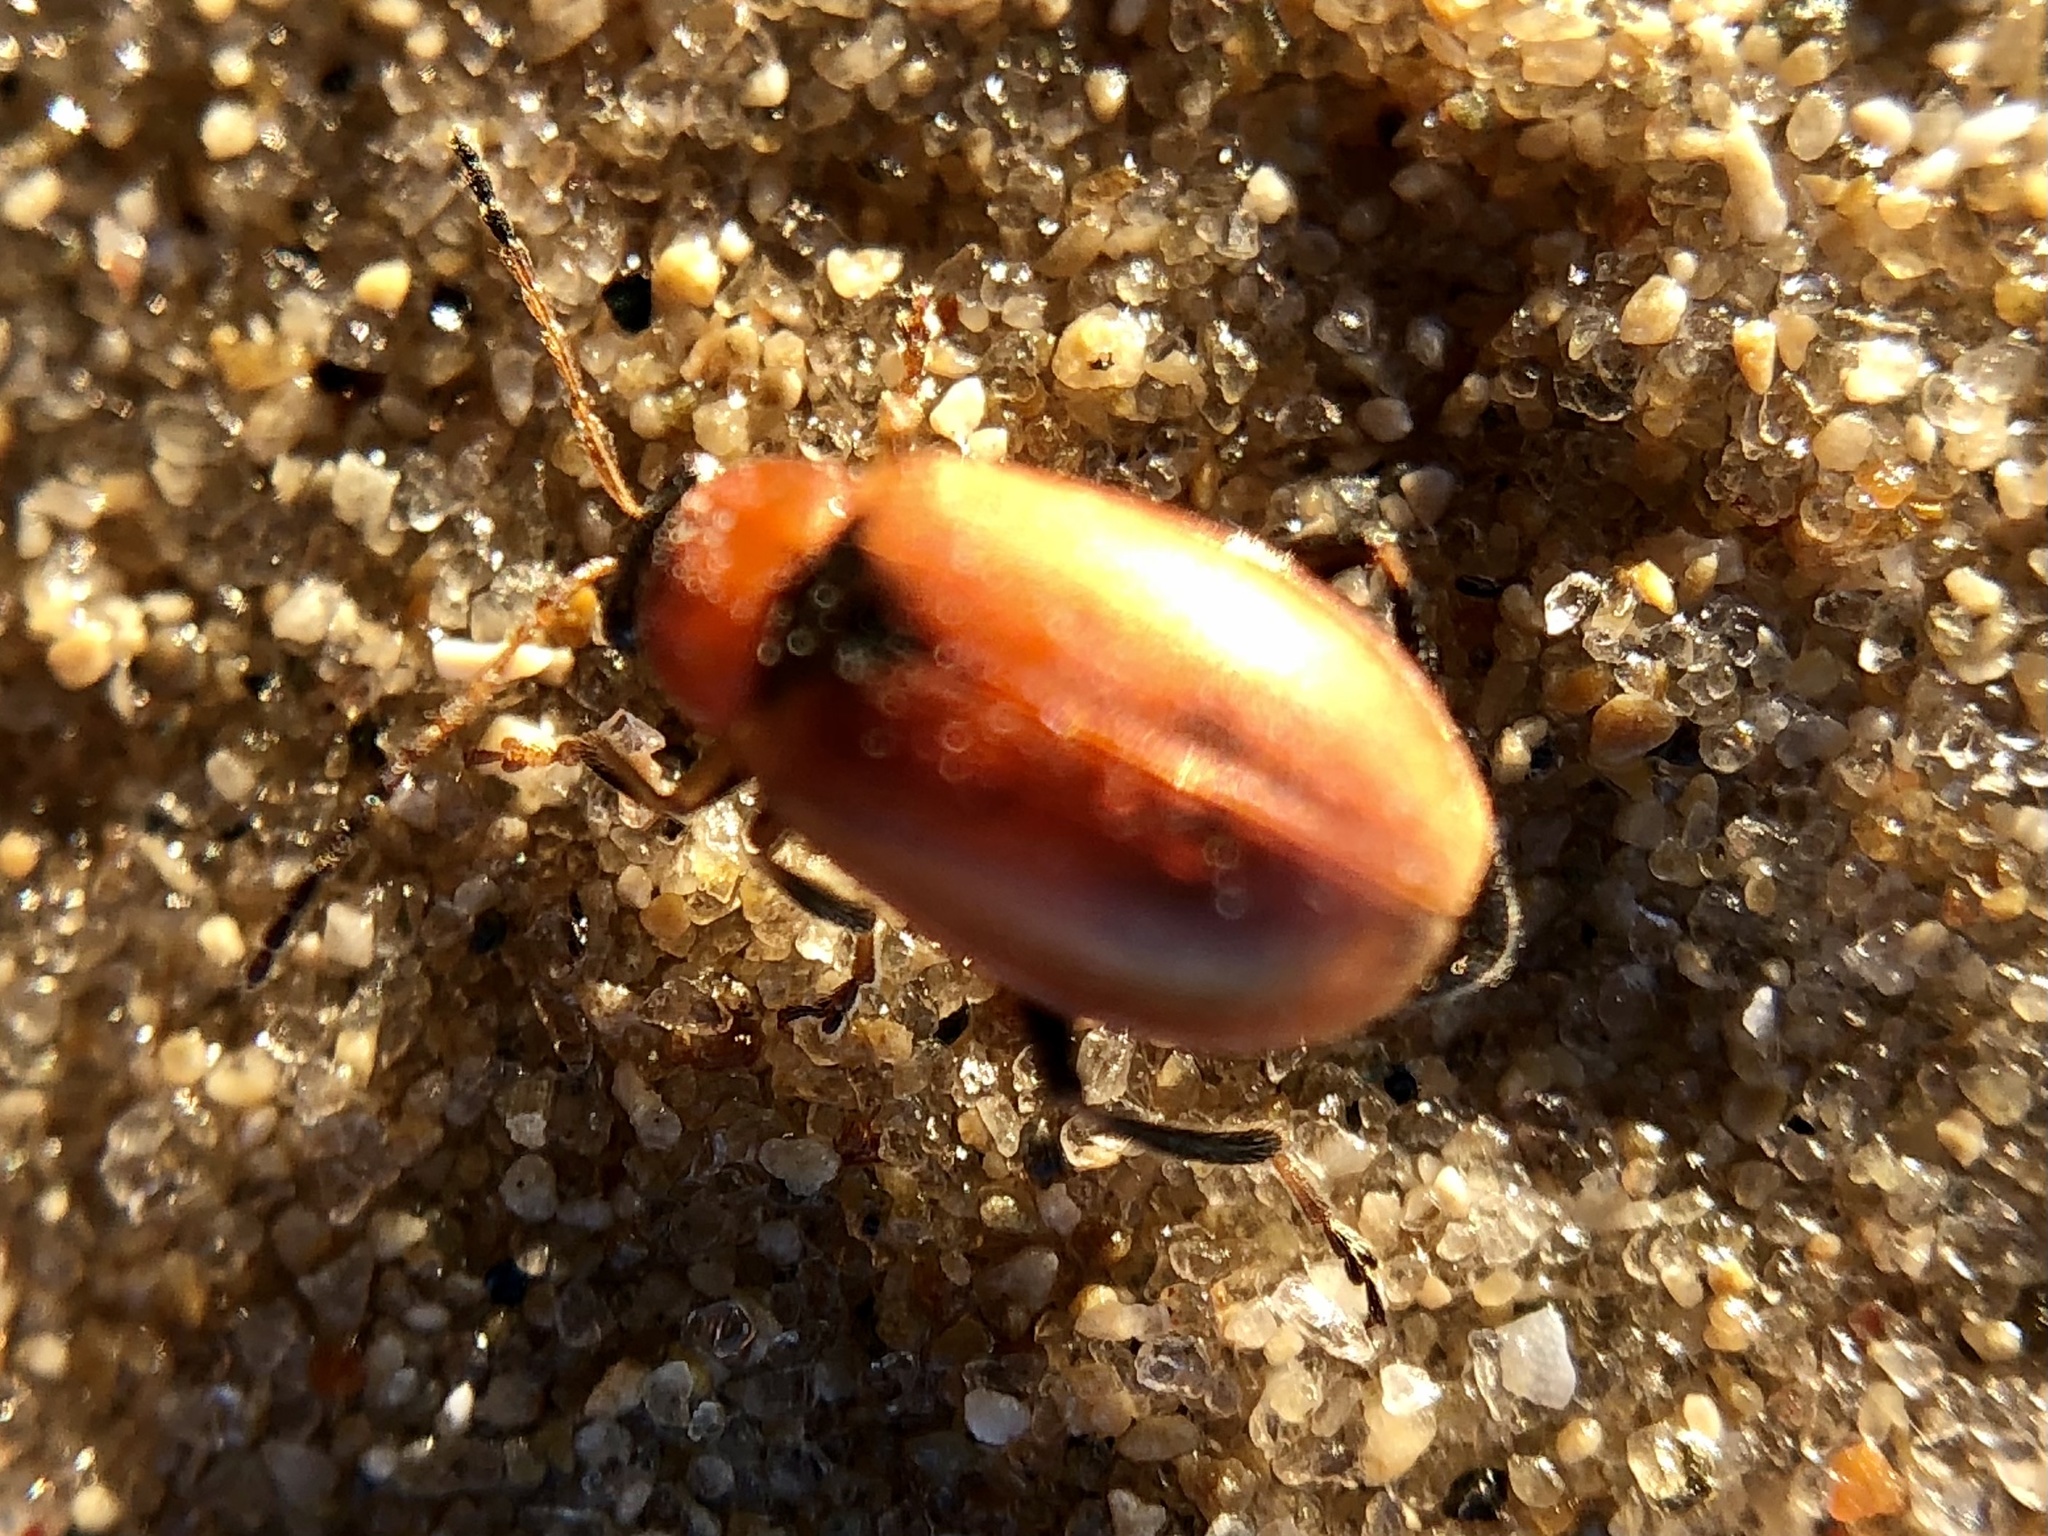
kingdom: Animalia
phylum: Arthropoda
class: Insecta
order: Coleoptera
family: Chrysomelidae
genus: Cerotoma
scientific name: Cerotoma trifurcata
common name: Bean leaf beetle
